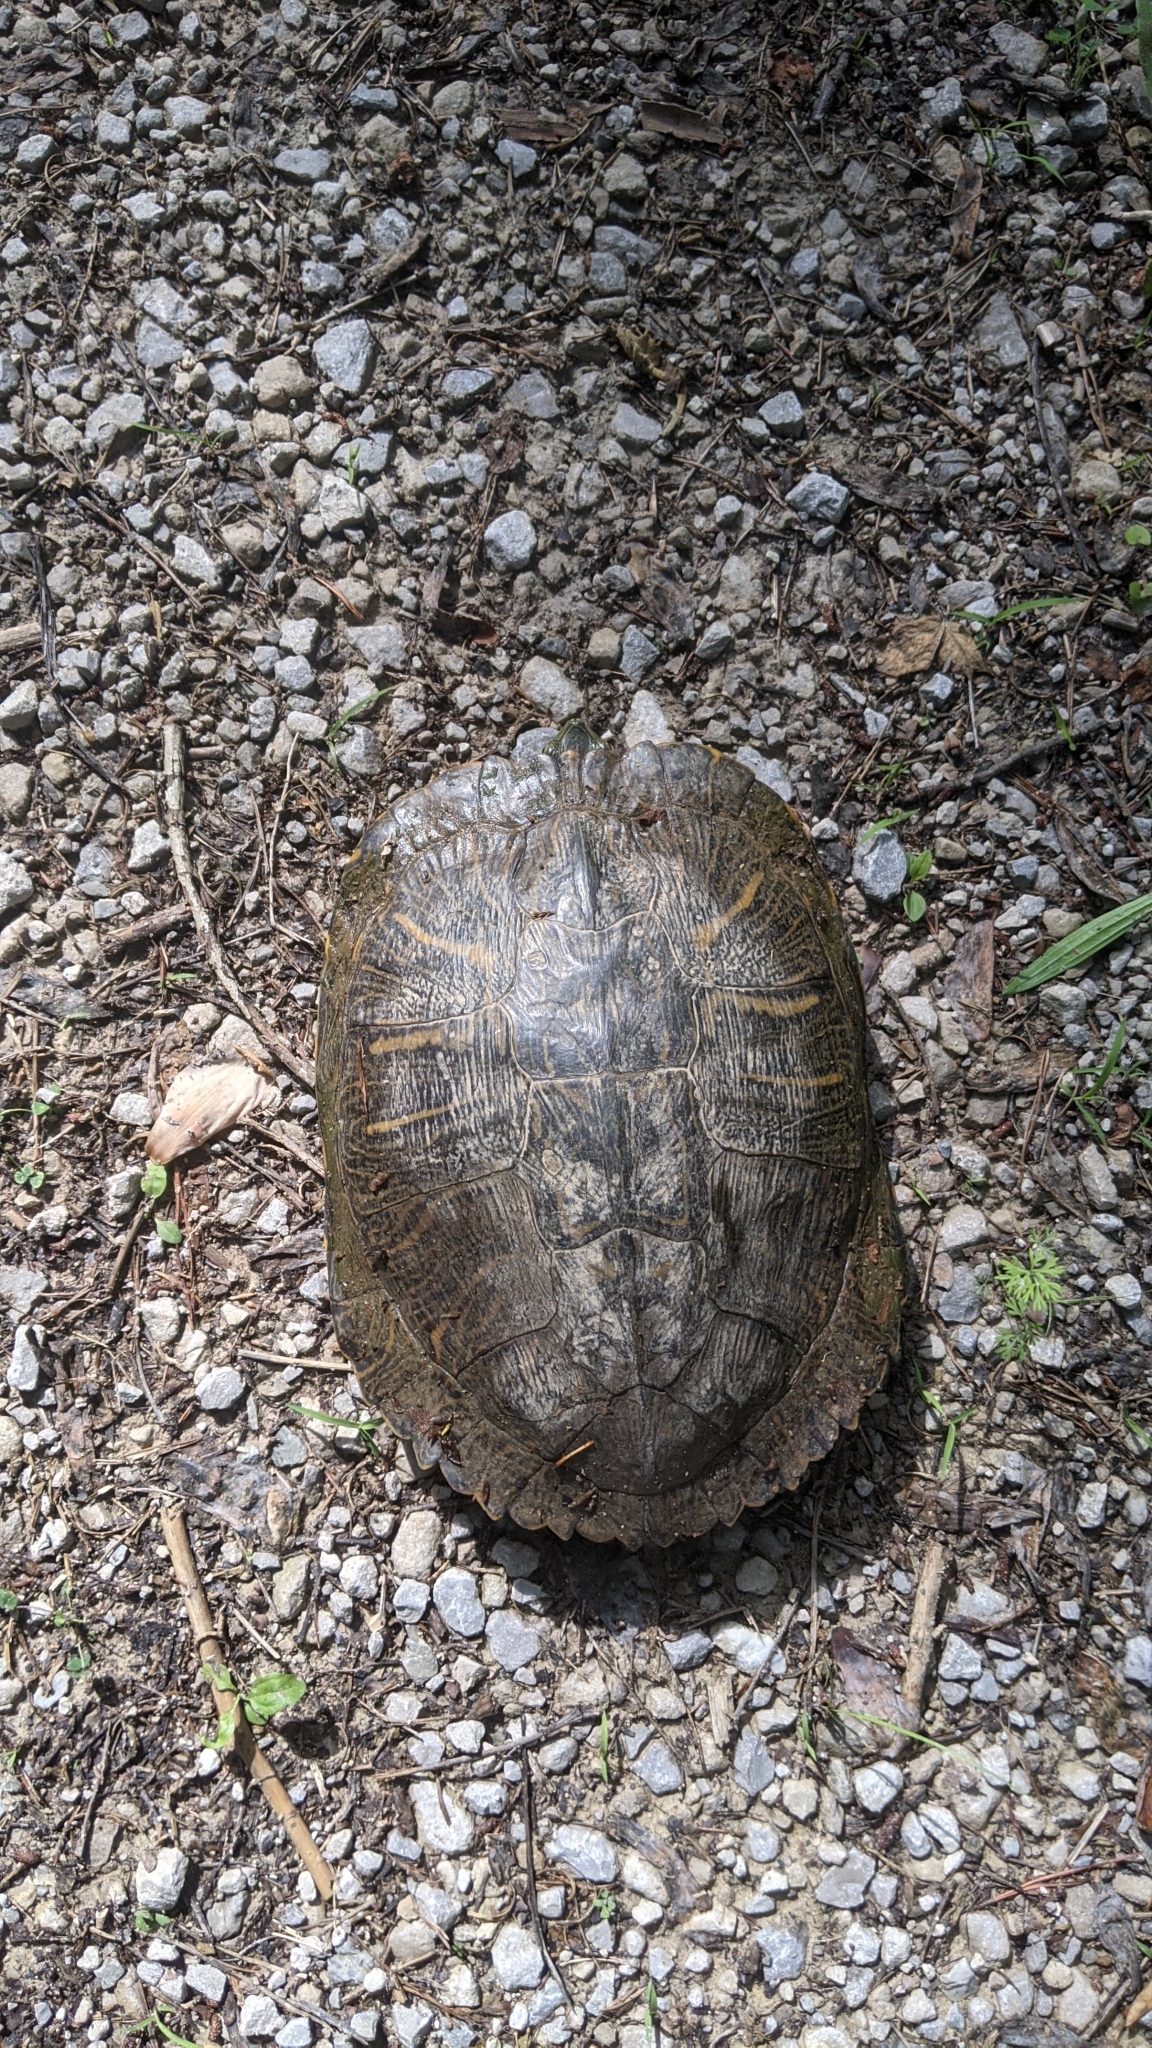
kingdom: Animalia
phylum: Chordata
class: Testudines
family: Emydidae
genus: Trachemys
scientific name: Trachemys scripta
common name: Slider
